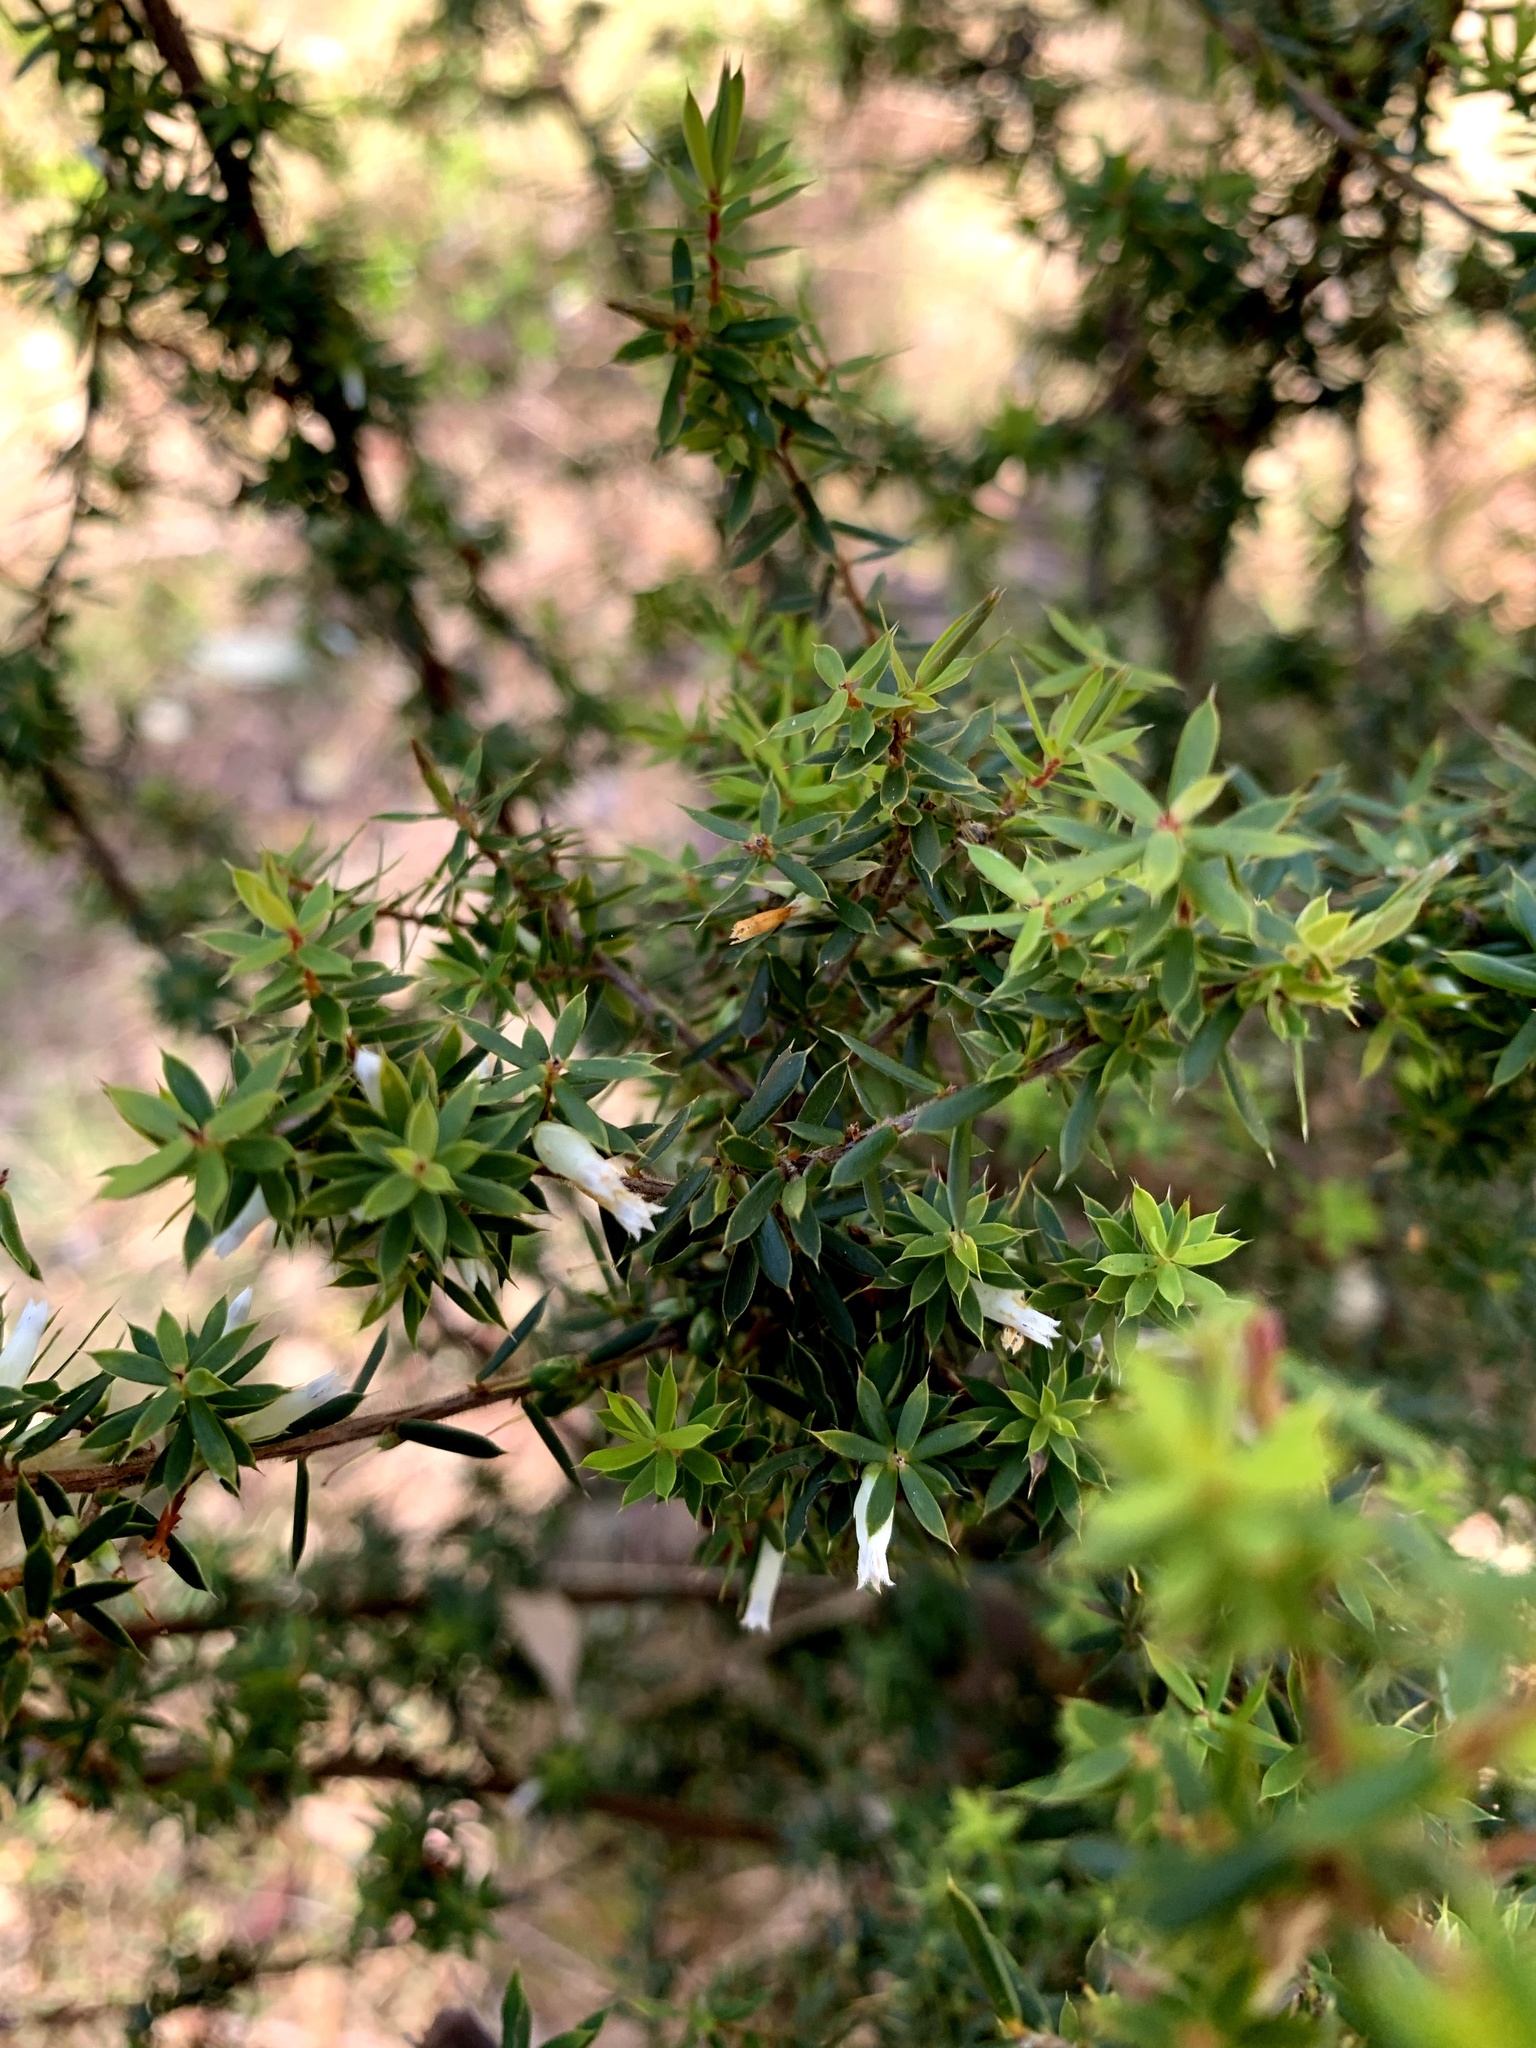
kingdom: Plantae
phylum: Tracheophyta
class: Magnoliopsida
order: Ericales
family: Ericaceae
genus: Styphelia
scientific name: Styphelia sieberi
